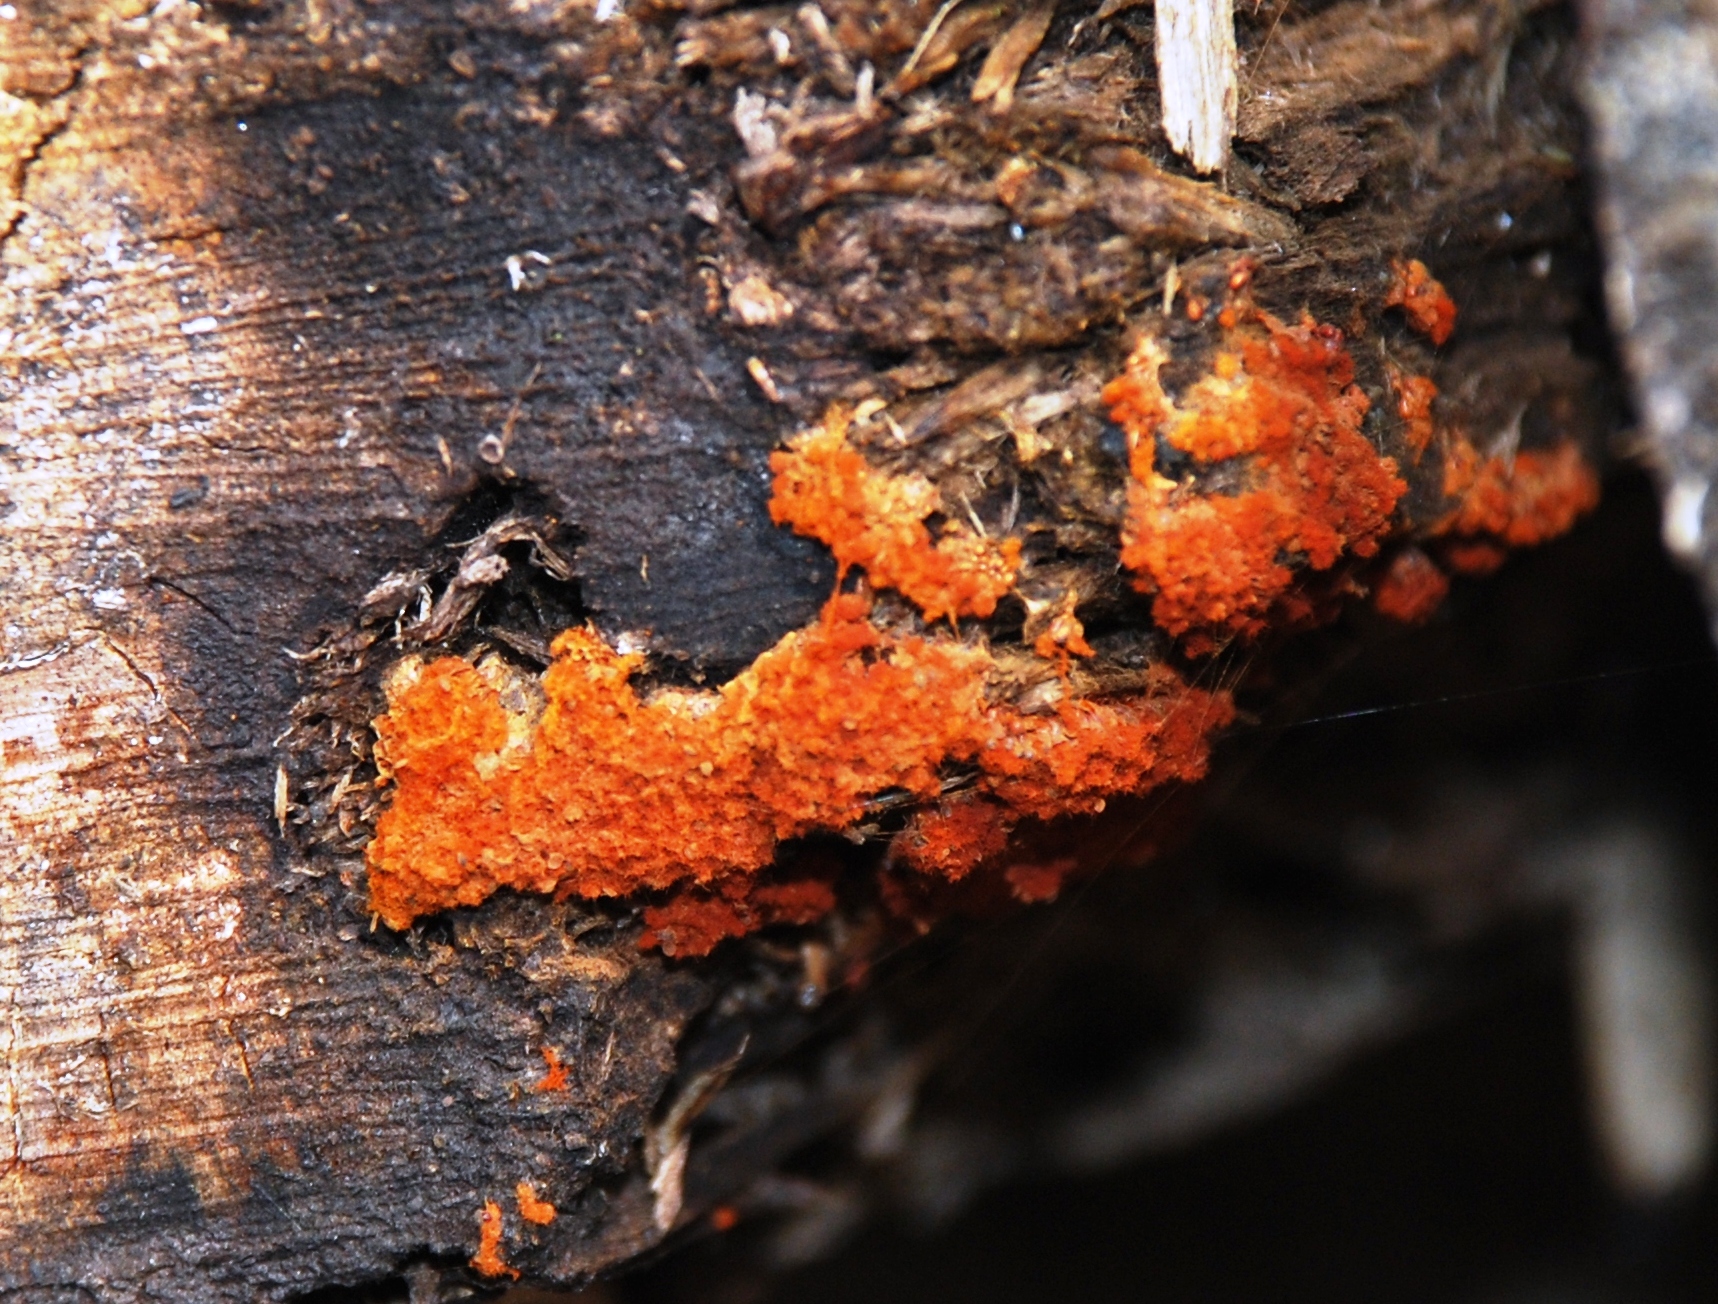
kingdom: Protozoa
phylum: Mycetozoa
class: Myxomycetes
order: Trichiales
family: Trichiaceae
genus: Metatrichia
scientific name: Metatrichia vesparia
